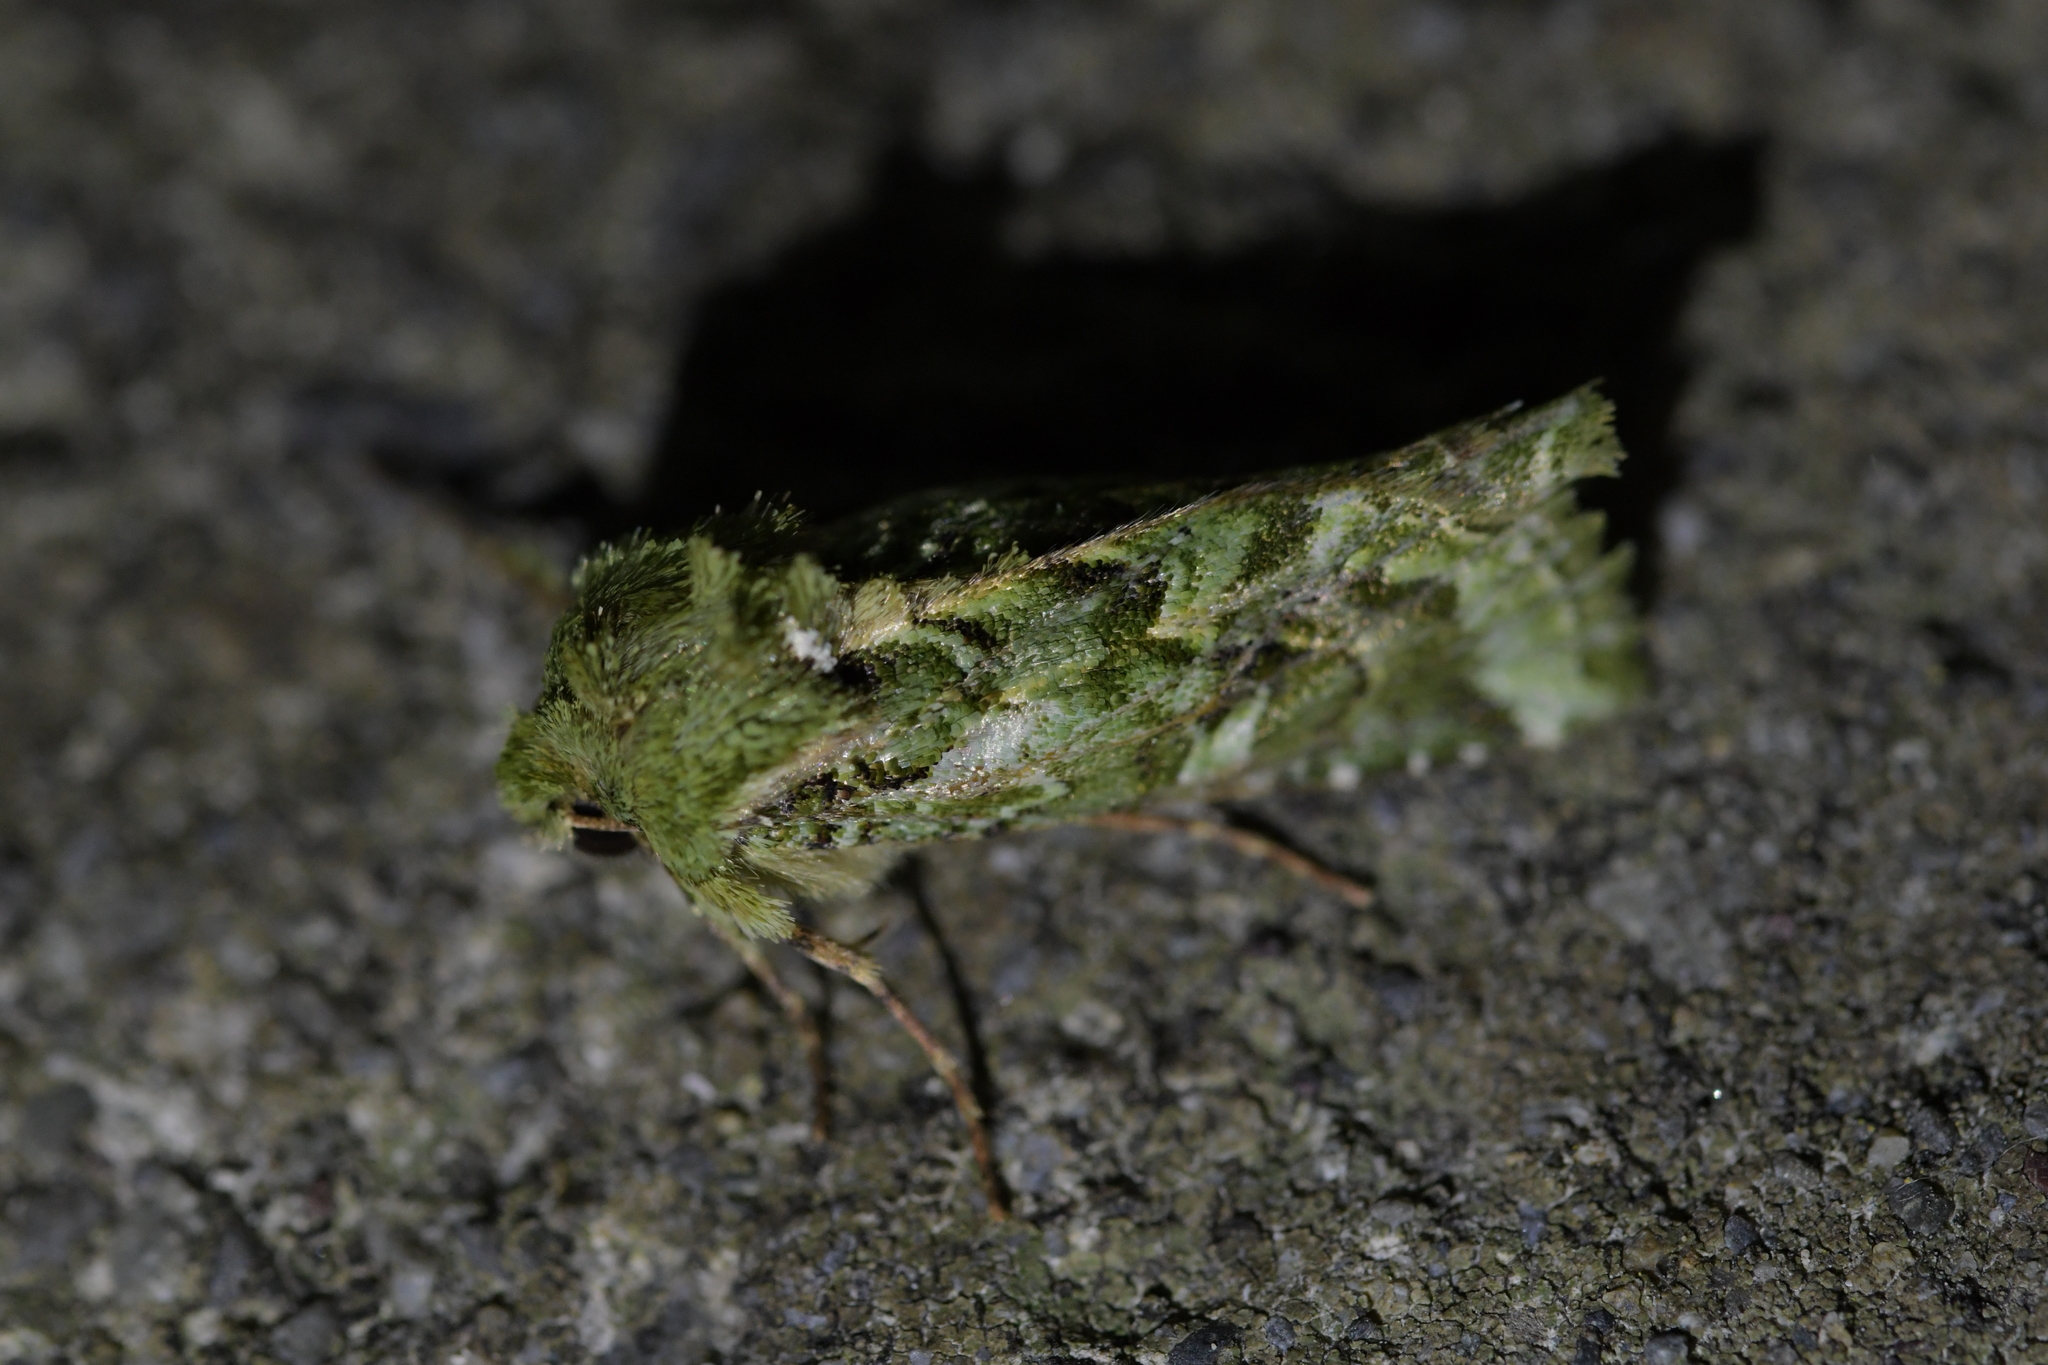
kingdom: Animalia
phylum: Arthropoda
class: Insecta
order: Lepidoptera
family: Noctuidae
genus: Feredayia
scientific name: Feredayia grammosa
